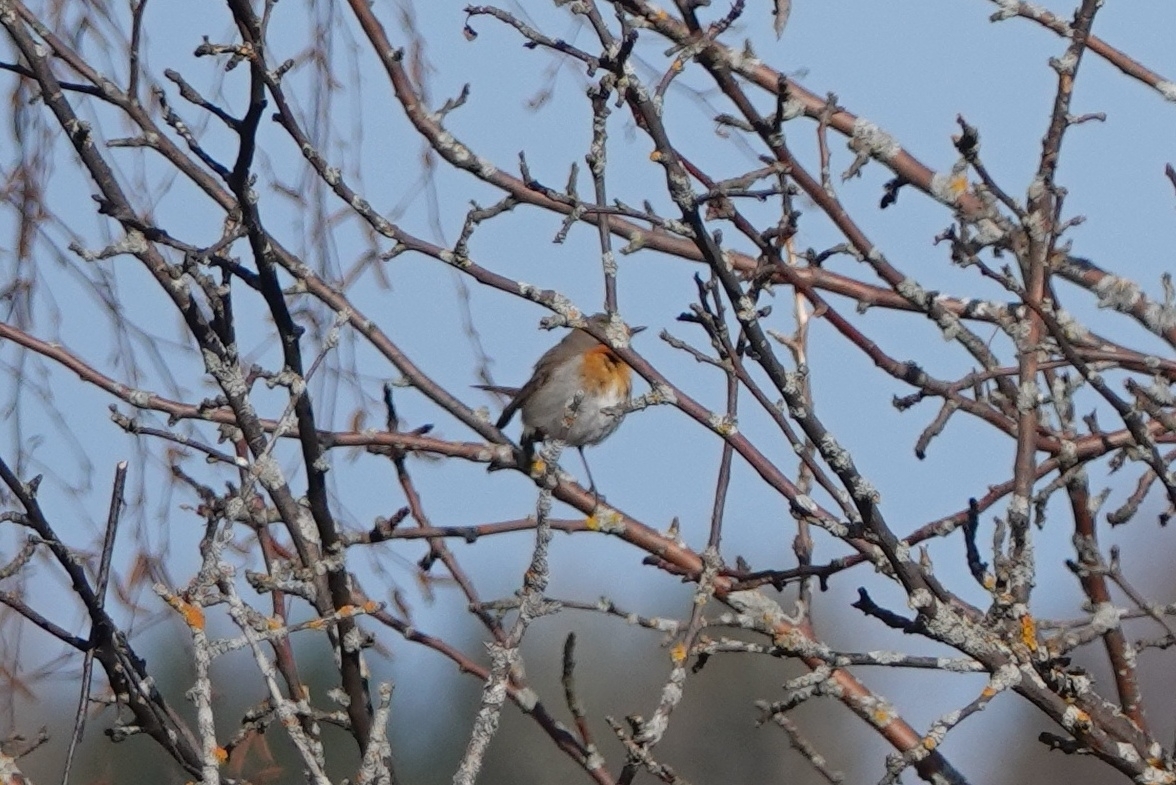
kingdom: Animalia
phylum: Chordata
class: Aves
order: Passeriformes
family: Muscicapidae
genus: Erithacus
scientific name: Erithacus rubecula
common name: European robin
